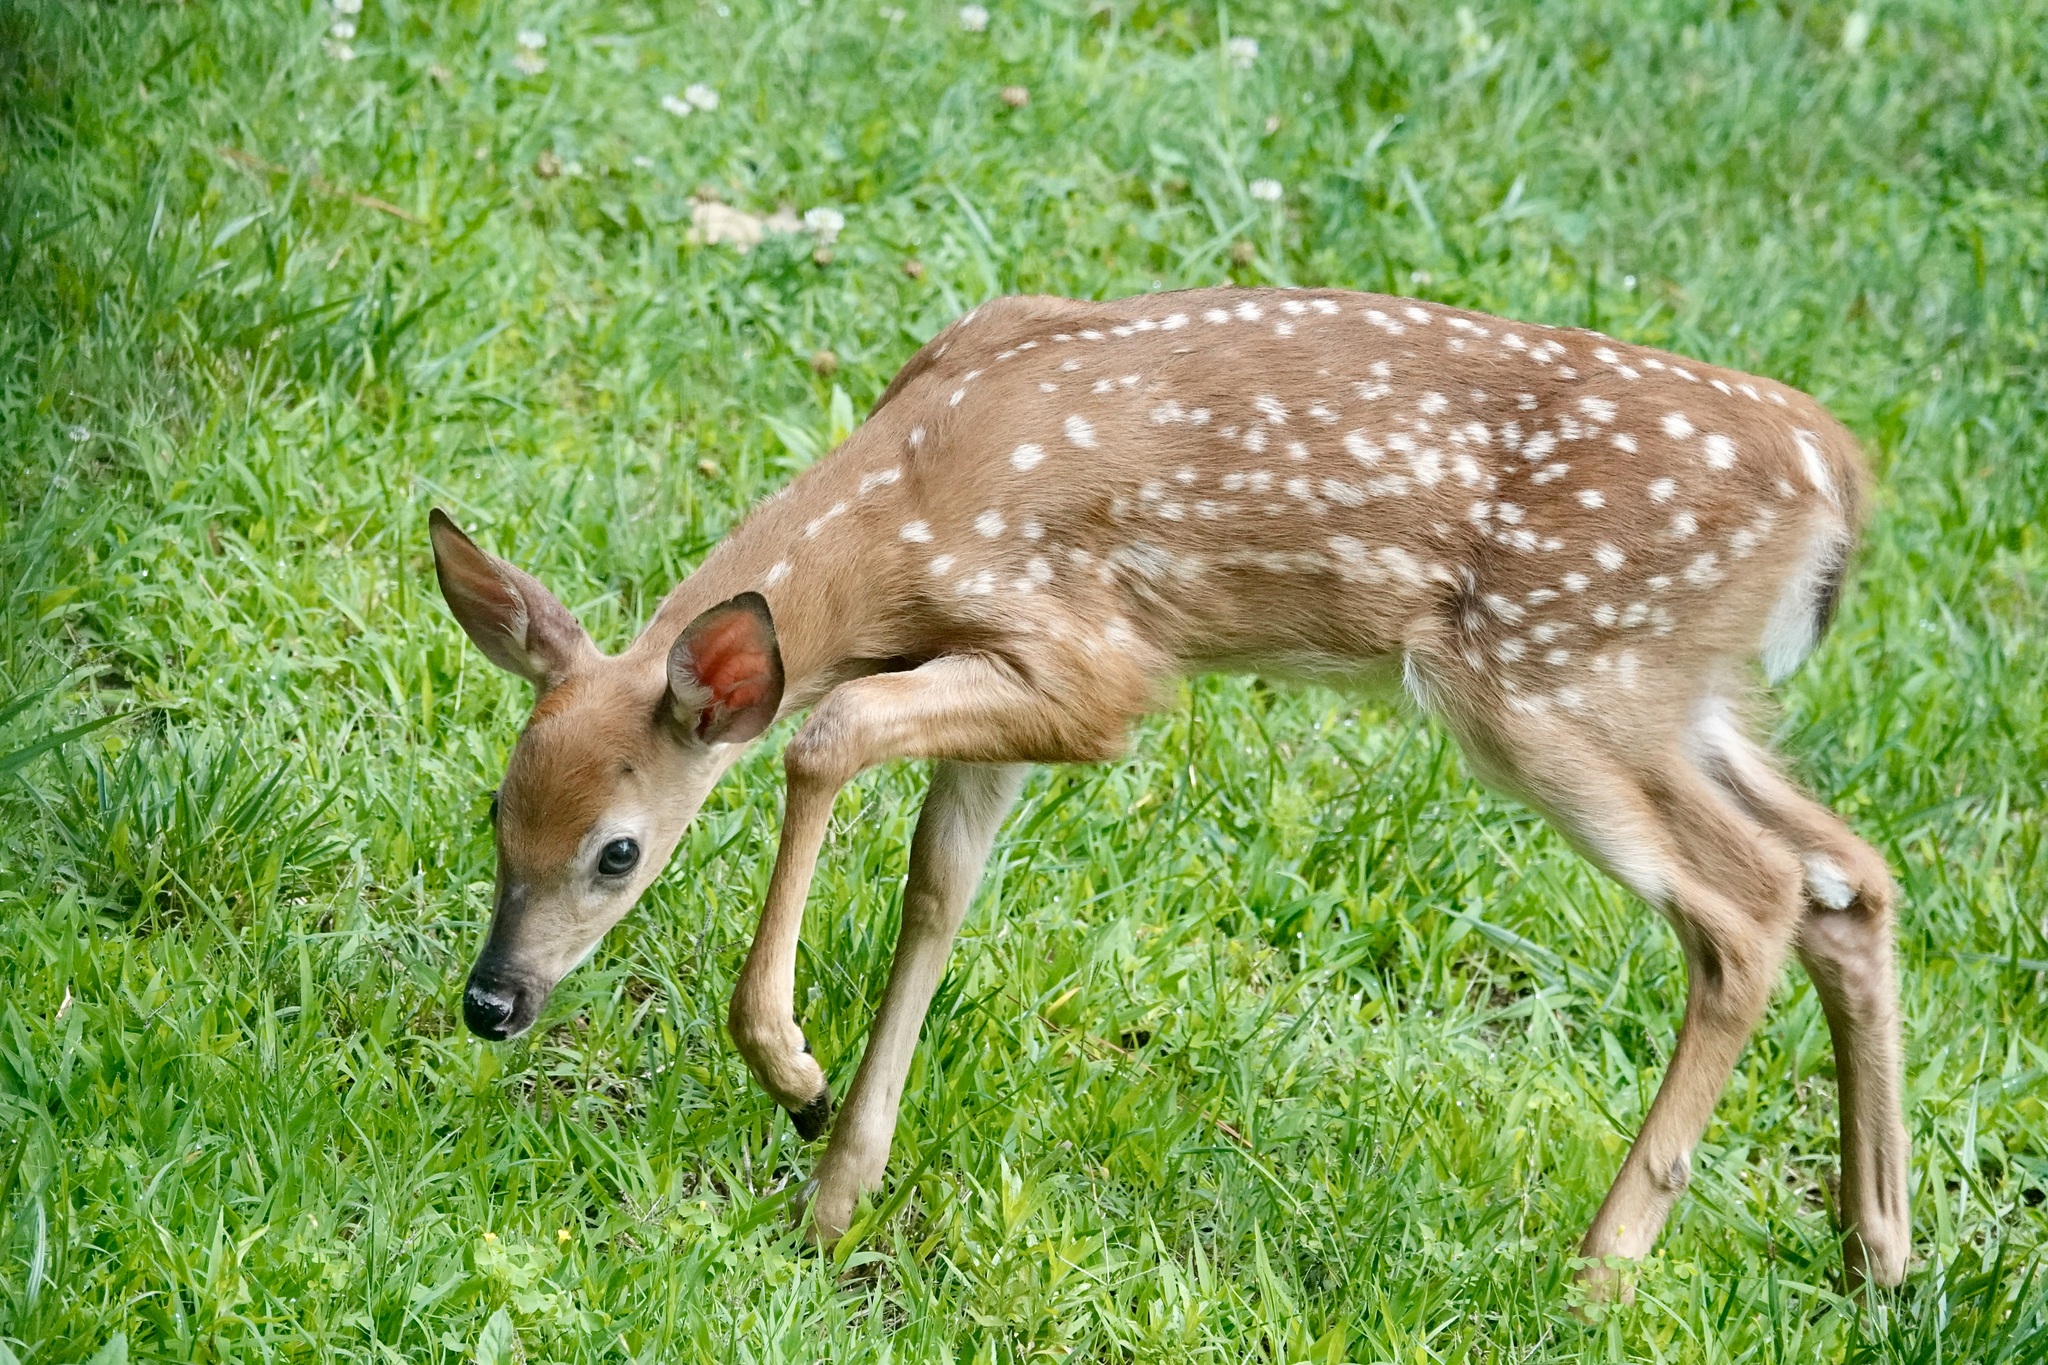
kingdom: Animalia
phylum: Chordata
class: Mammalia
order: Artiodactyla
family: Cervidae
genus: Odocoileus
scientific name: Odocoileus virginianus
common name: White-tailed deer
